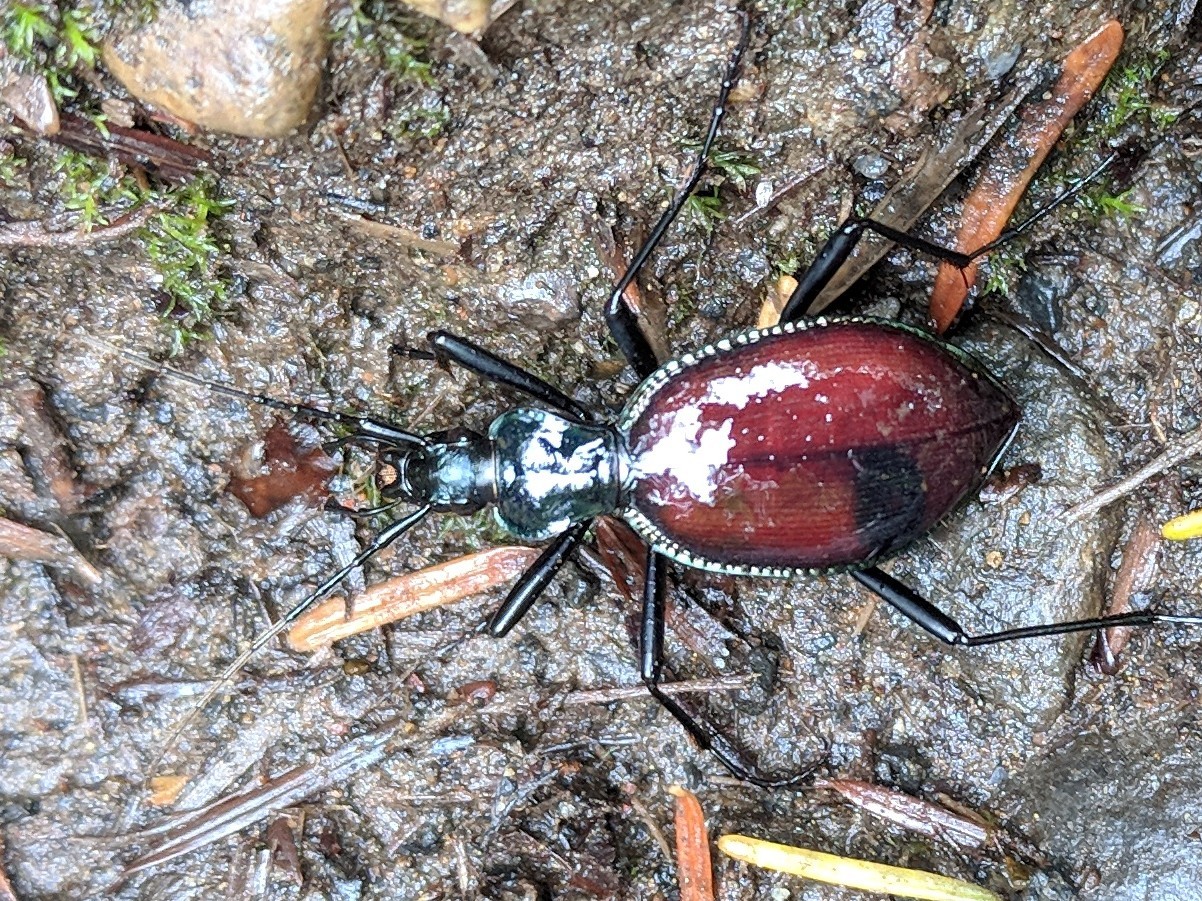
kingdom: Animalia
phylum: Arthropoda
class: Insecta
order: Coleoptera
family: Carabidae
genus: Scaphinotus
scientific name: Scaphinotus angusticollis
